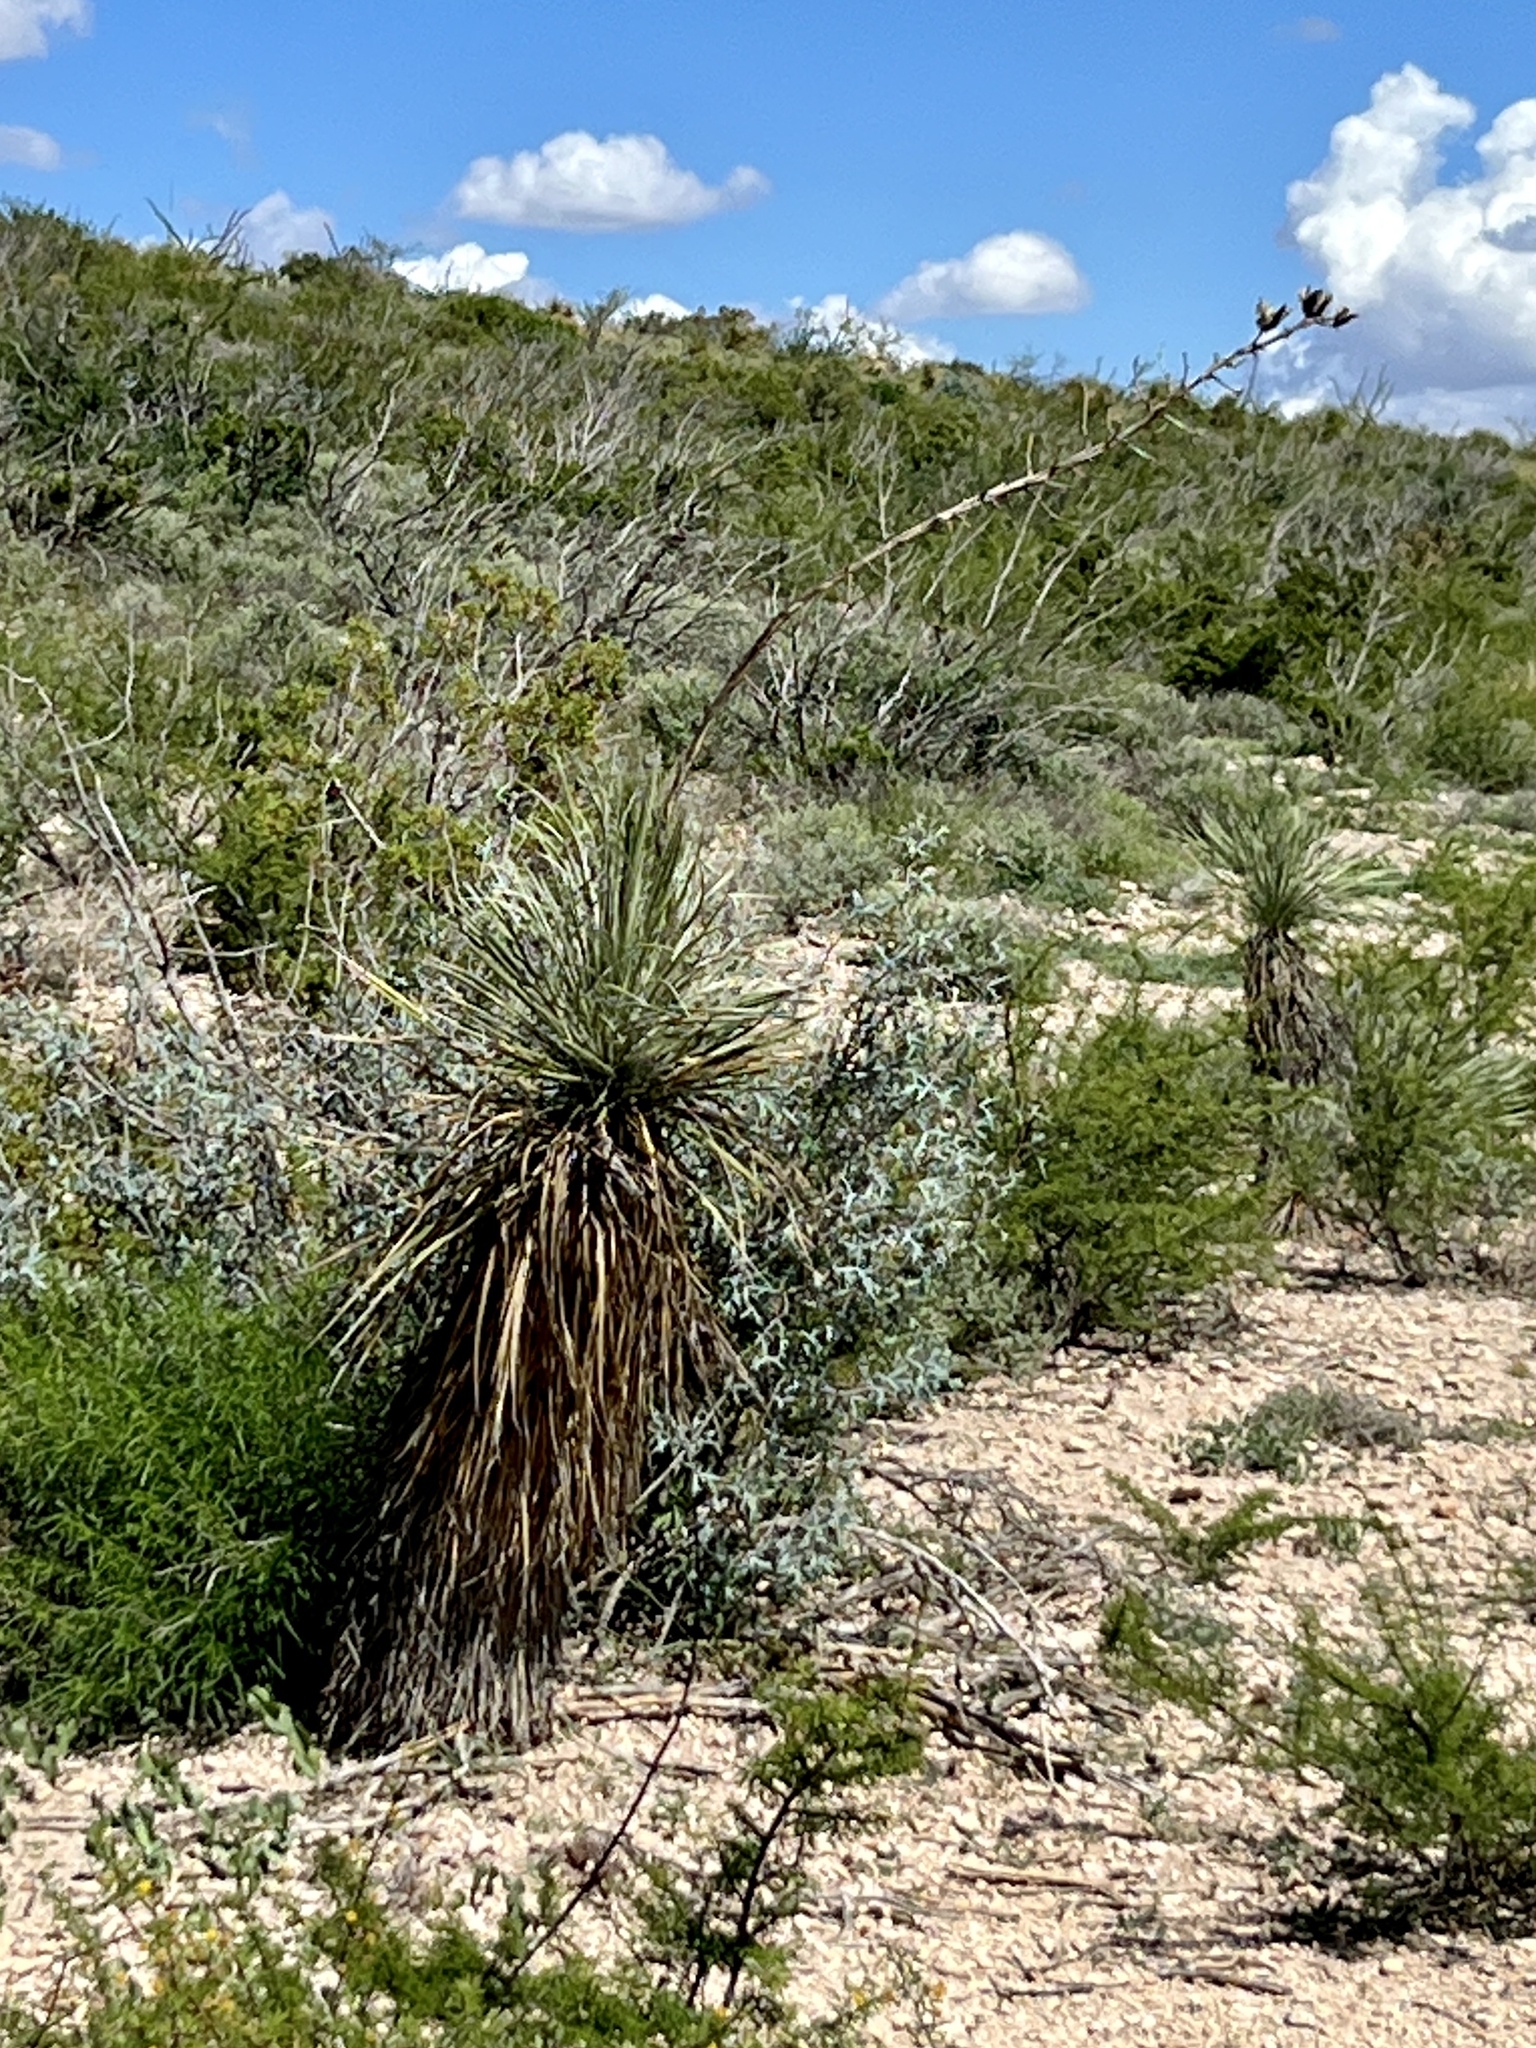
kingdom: Plantae
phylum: Tracheophyta
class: Liliopsida
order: Asparagales
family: Asparagaceae
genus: Yucca
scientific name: Yucca elata
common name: Palmella
